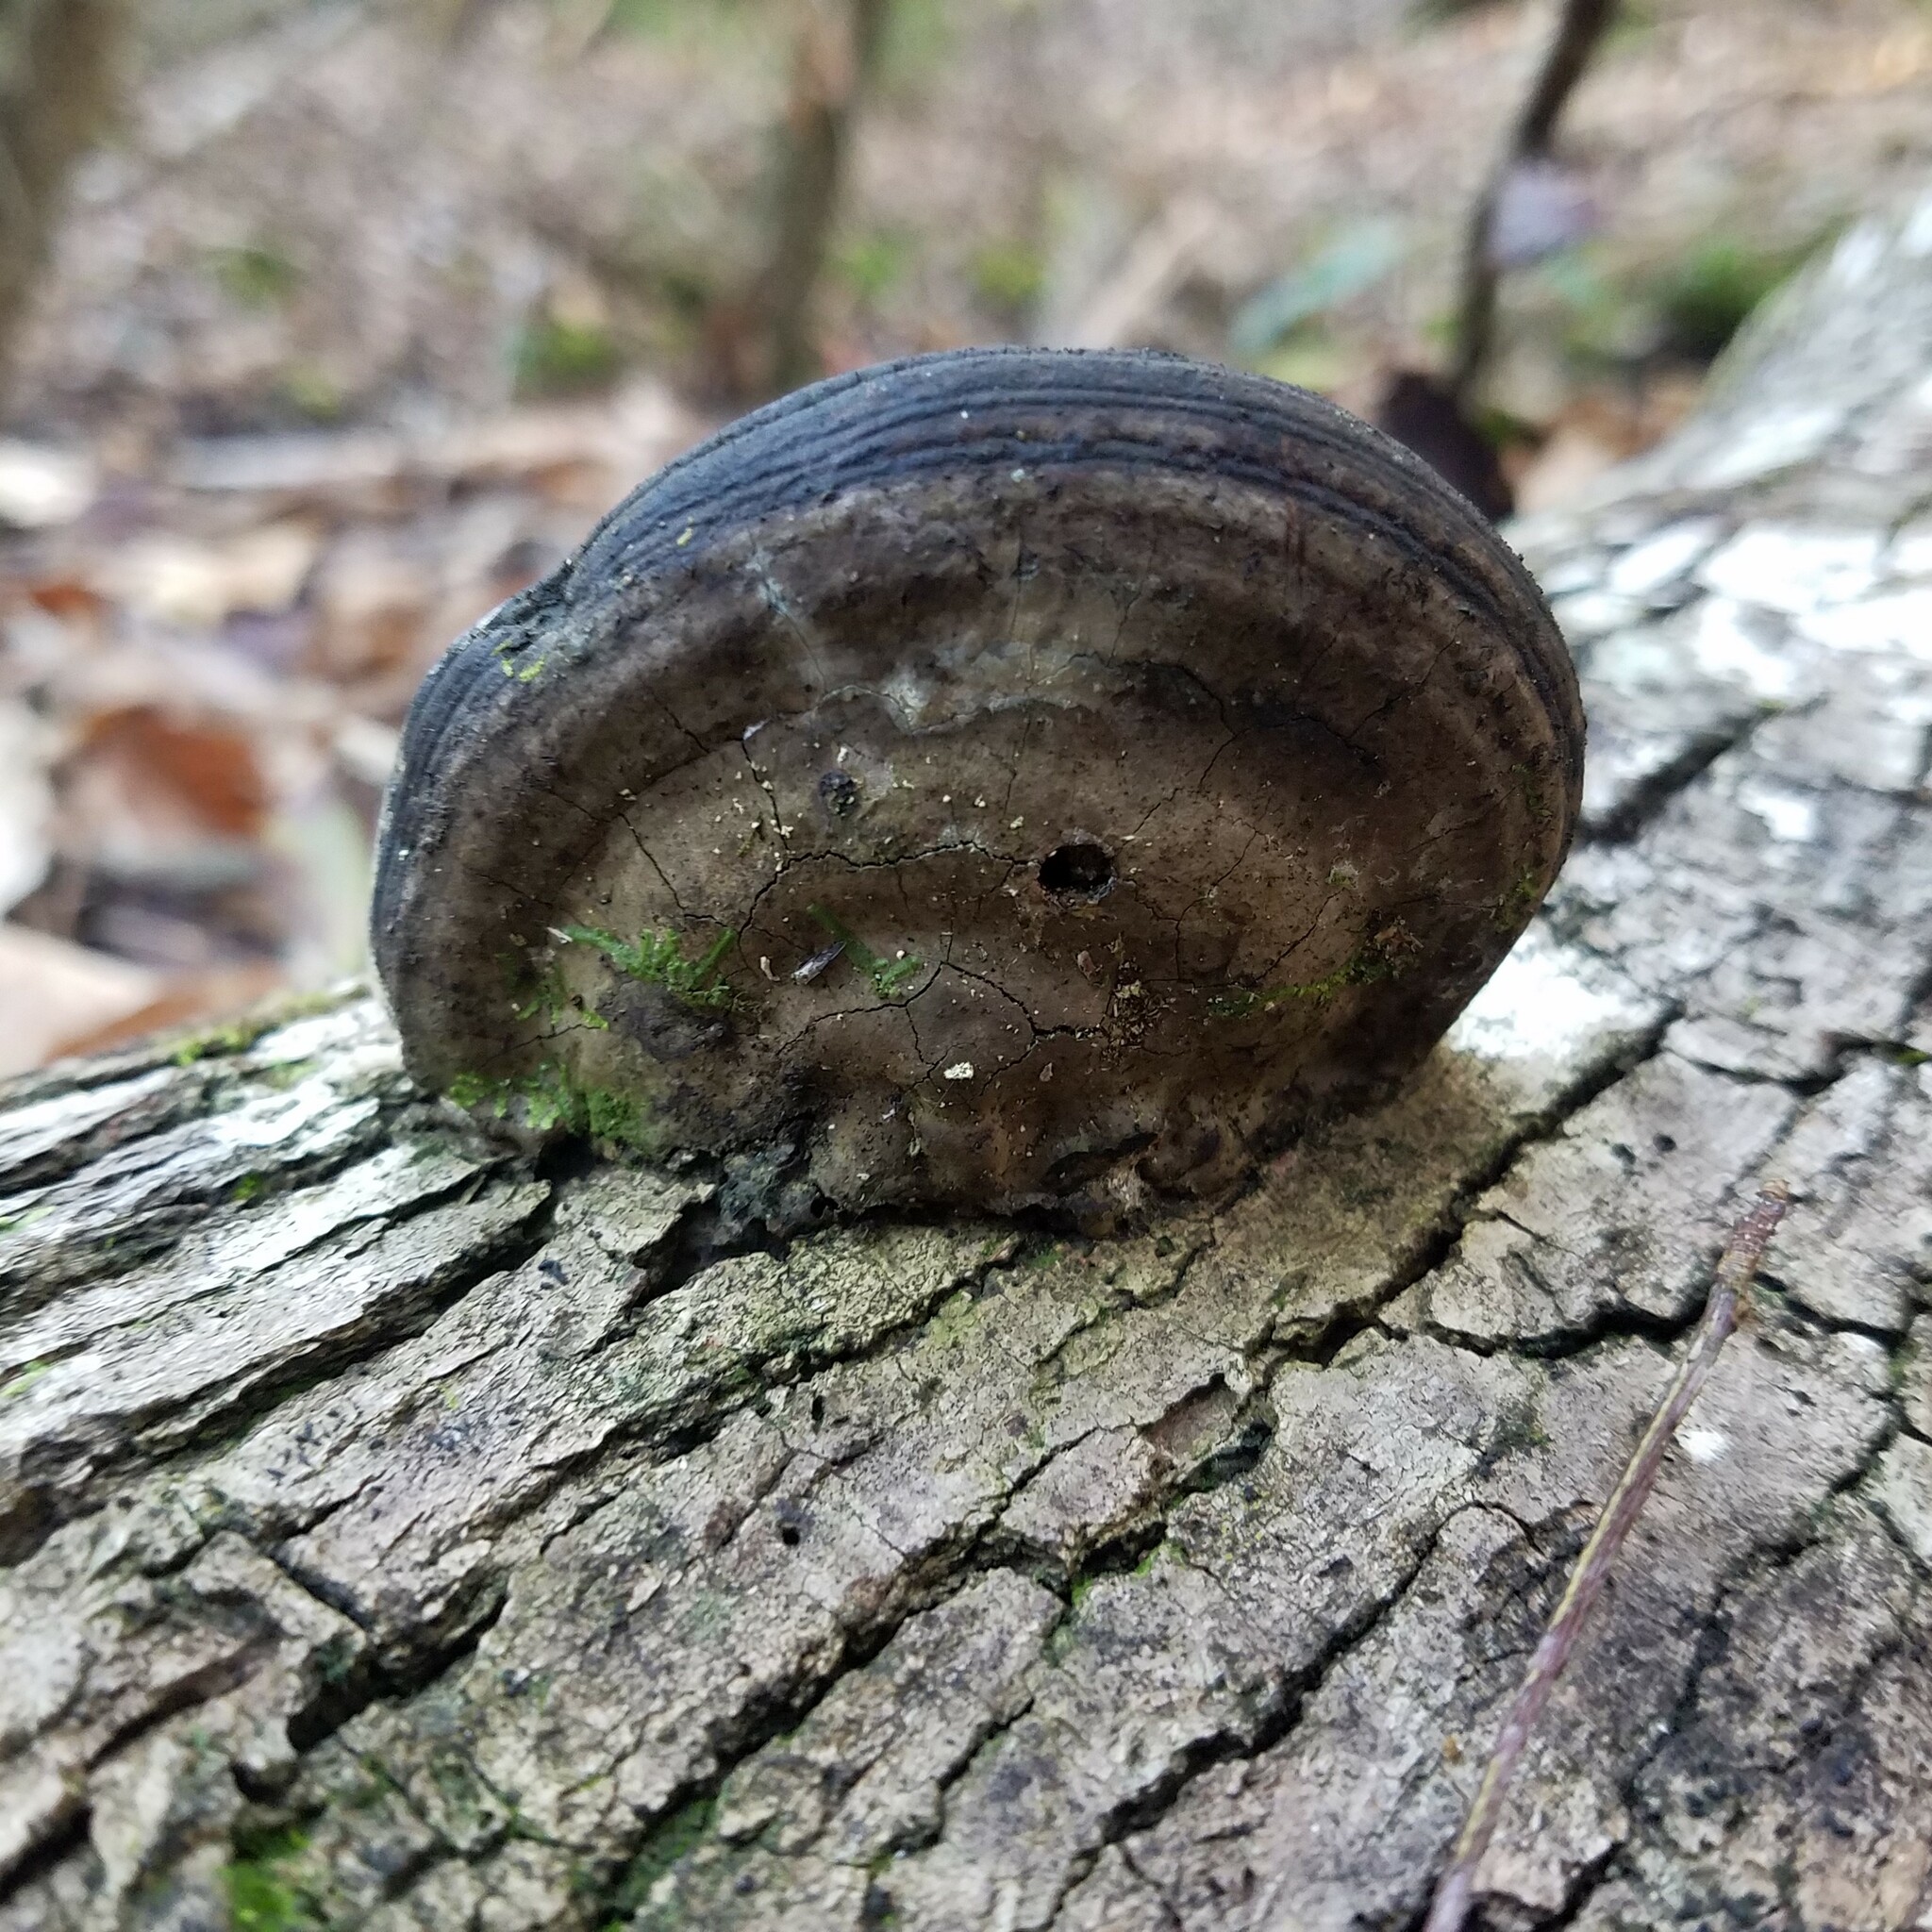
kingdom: Fungi
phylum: Basidiomycota
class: Agaricomycetes
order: Polyporales
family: Polyporaceae
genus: Fomes
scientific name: Fomes fasciatus
